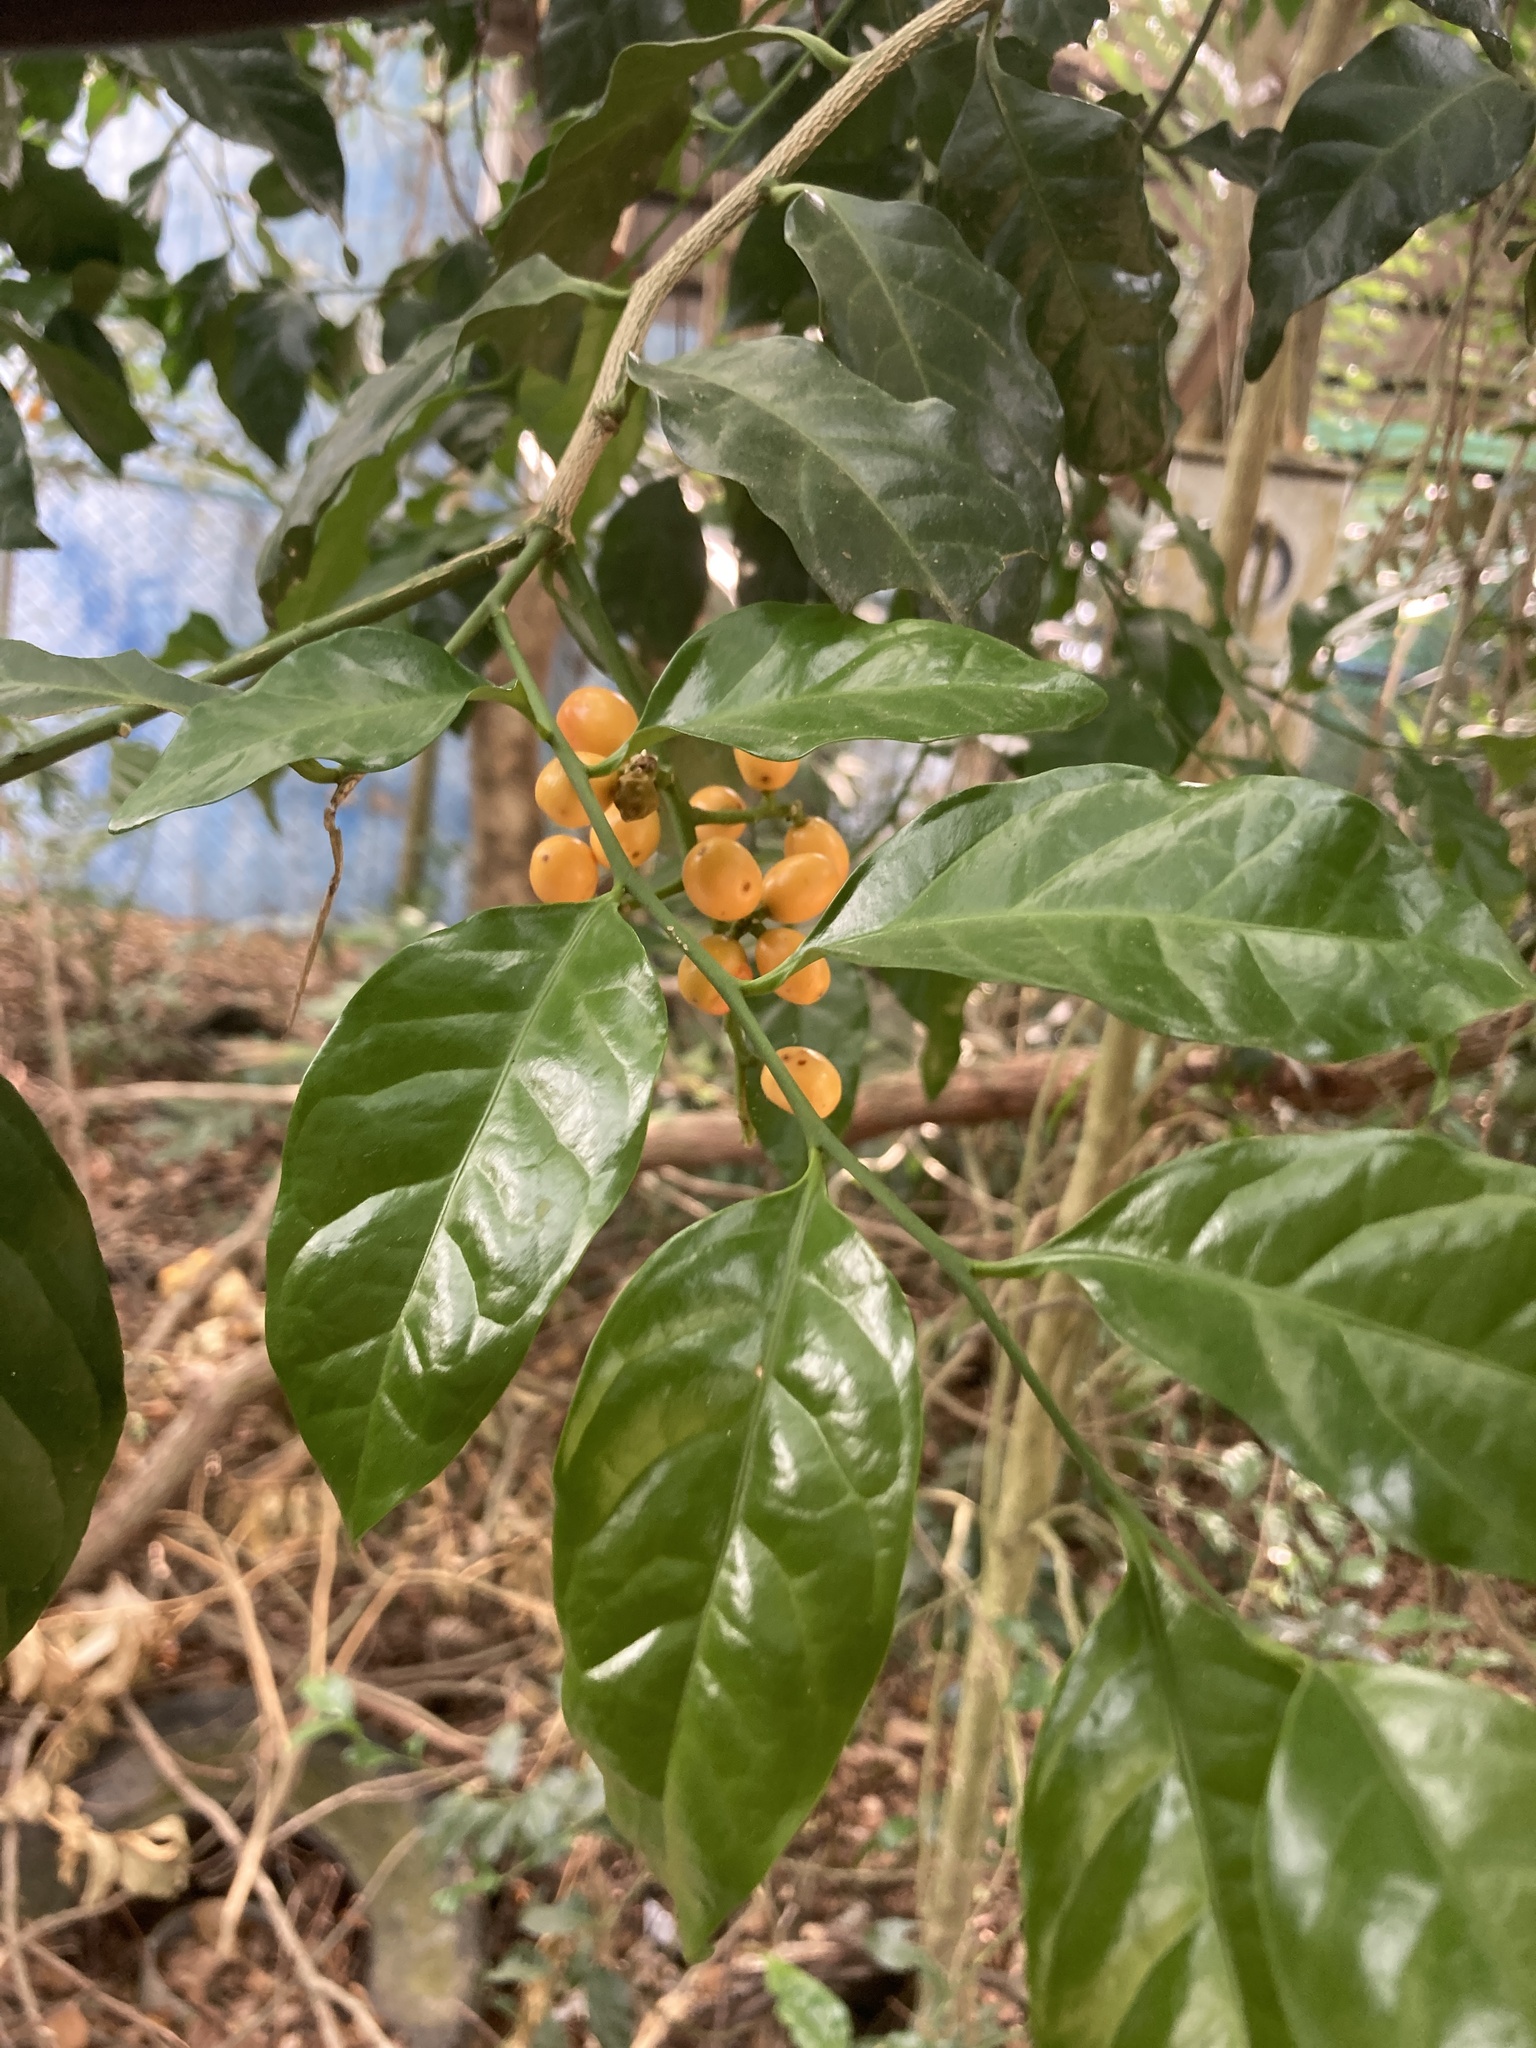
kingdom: Plantae
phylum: Tracheophyta
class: Magnoliopsida
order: Santalales
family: Opiliaceae
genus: Champereia
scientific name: Champereia manillana
